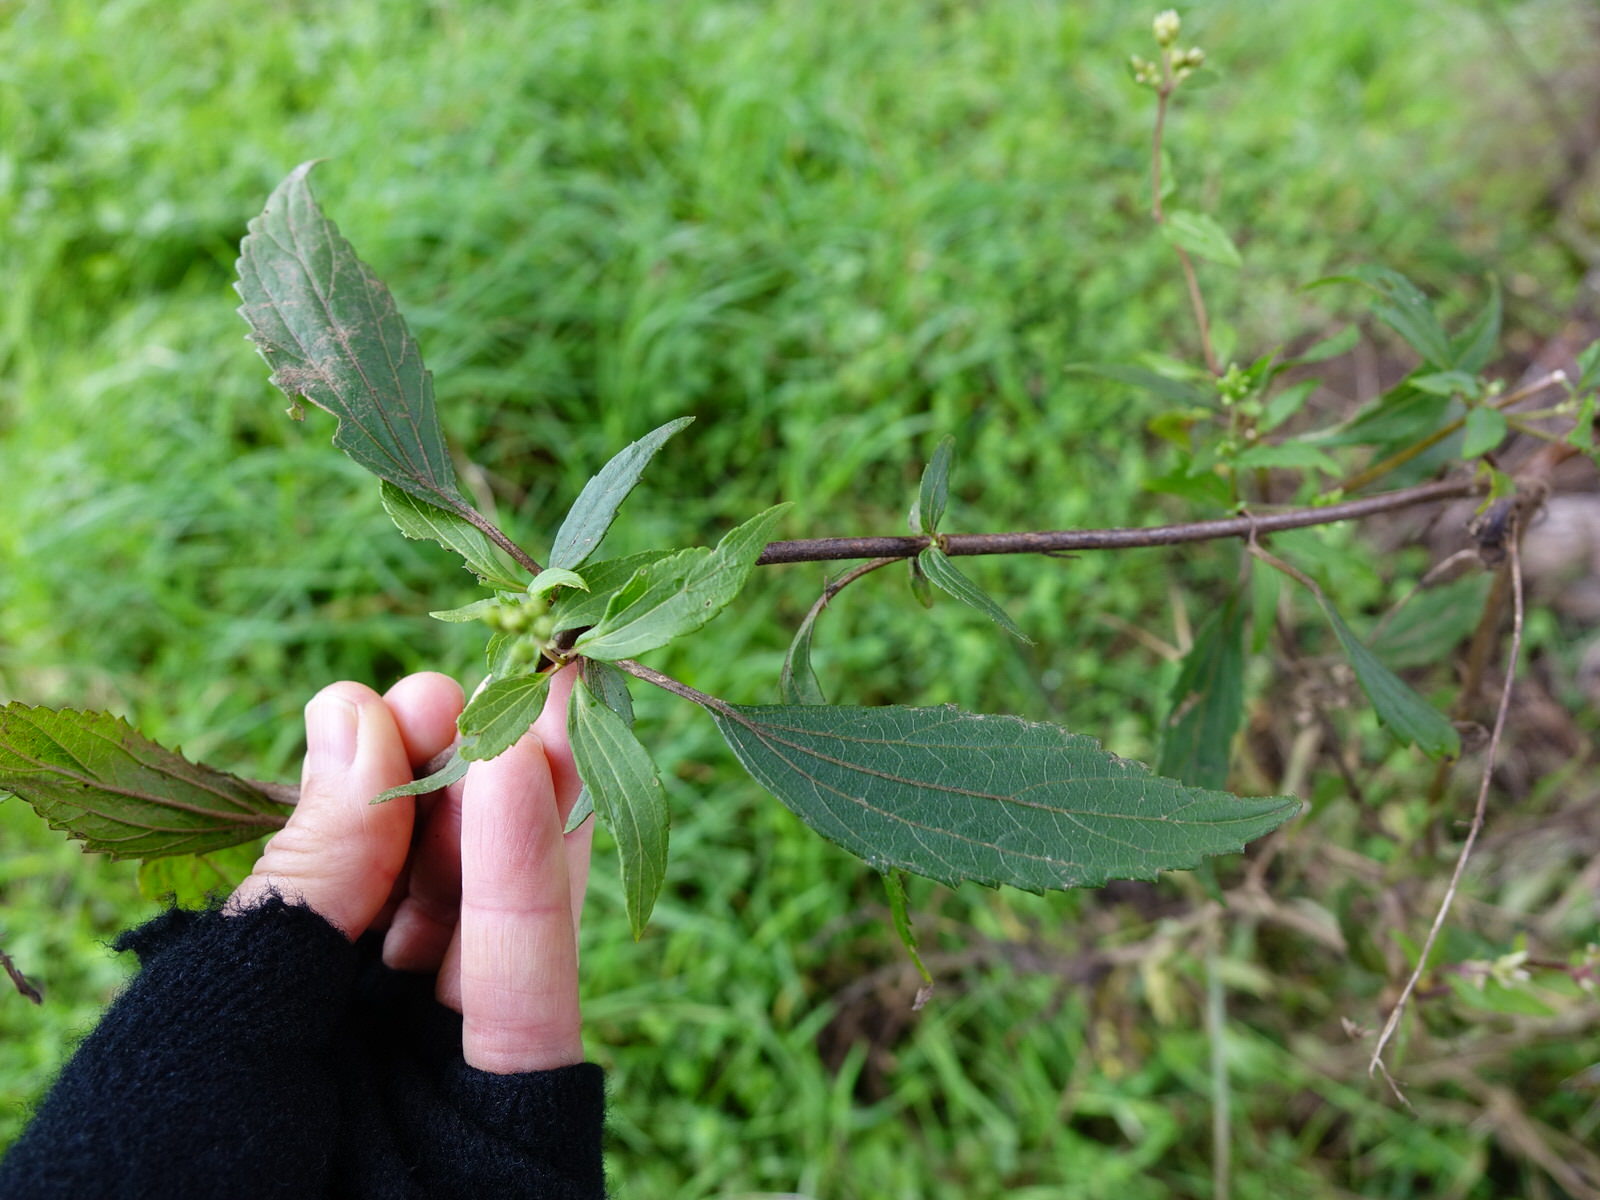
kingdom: Plantae
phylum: Tracheophyta
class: Magnoliopsida
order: Asterales
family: Asteraceae
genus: Ageratina
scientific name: Ageratina riparia
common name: Creeping croftonweed
